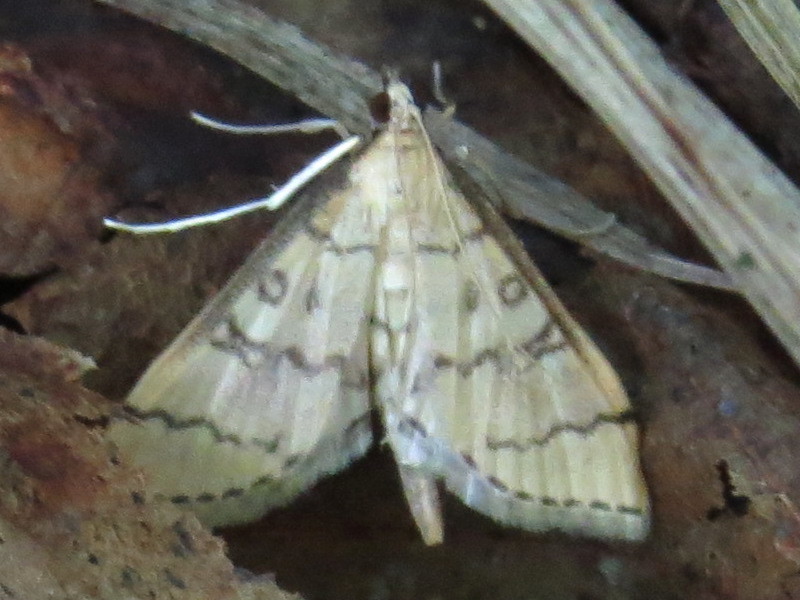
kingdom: Animalia
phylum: Arthropoda
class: Insecta
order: Lepidoptera
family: Crambidae
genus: Lamprosema
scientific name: Lamprosema Blepharomastix ranalis
